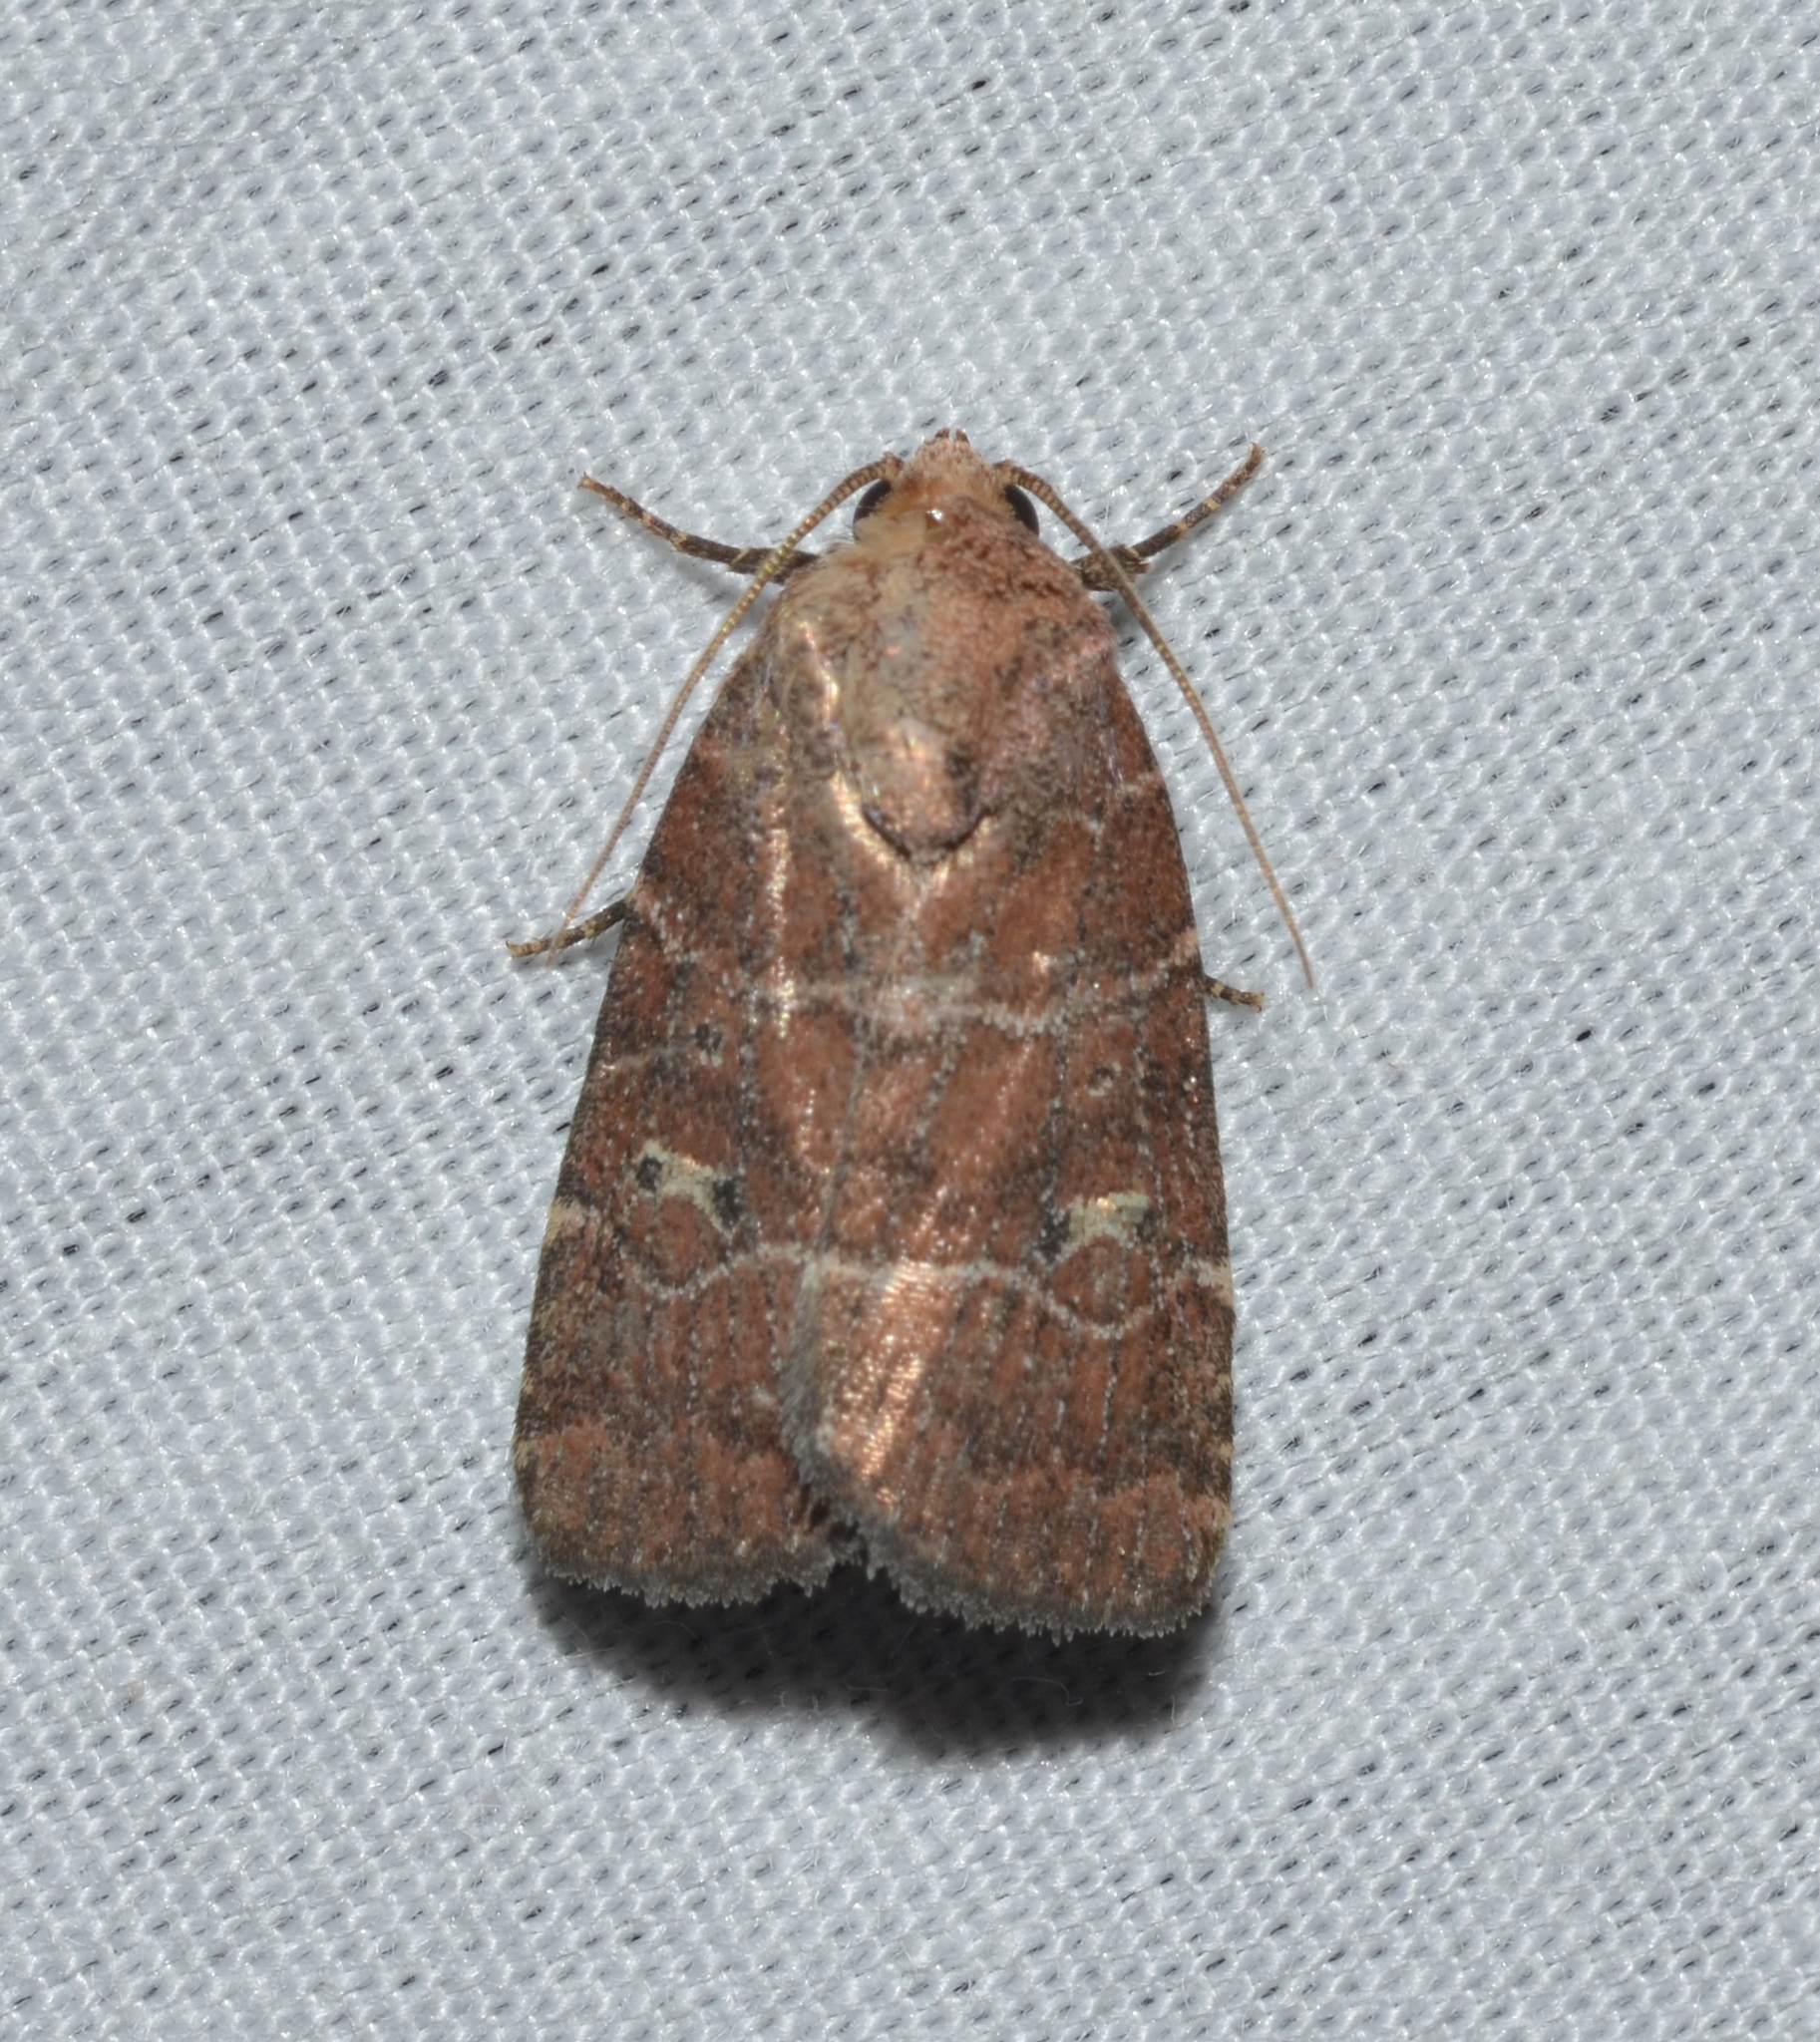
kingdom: Animalia
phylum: Arthropoda
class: Insecta
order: Lepidoptera
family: Noctuidae
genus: Elaphria
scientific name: Elaphria grata
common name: Grateful midget moth
